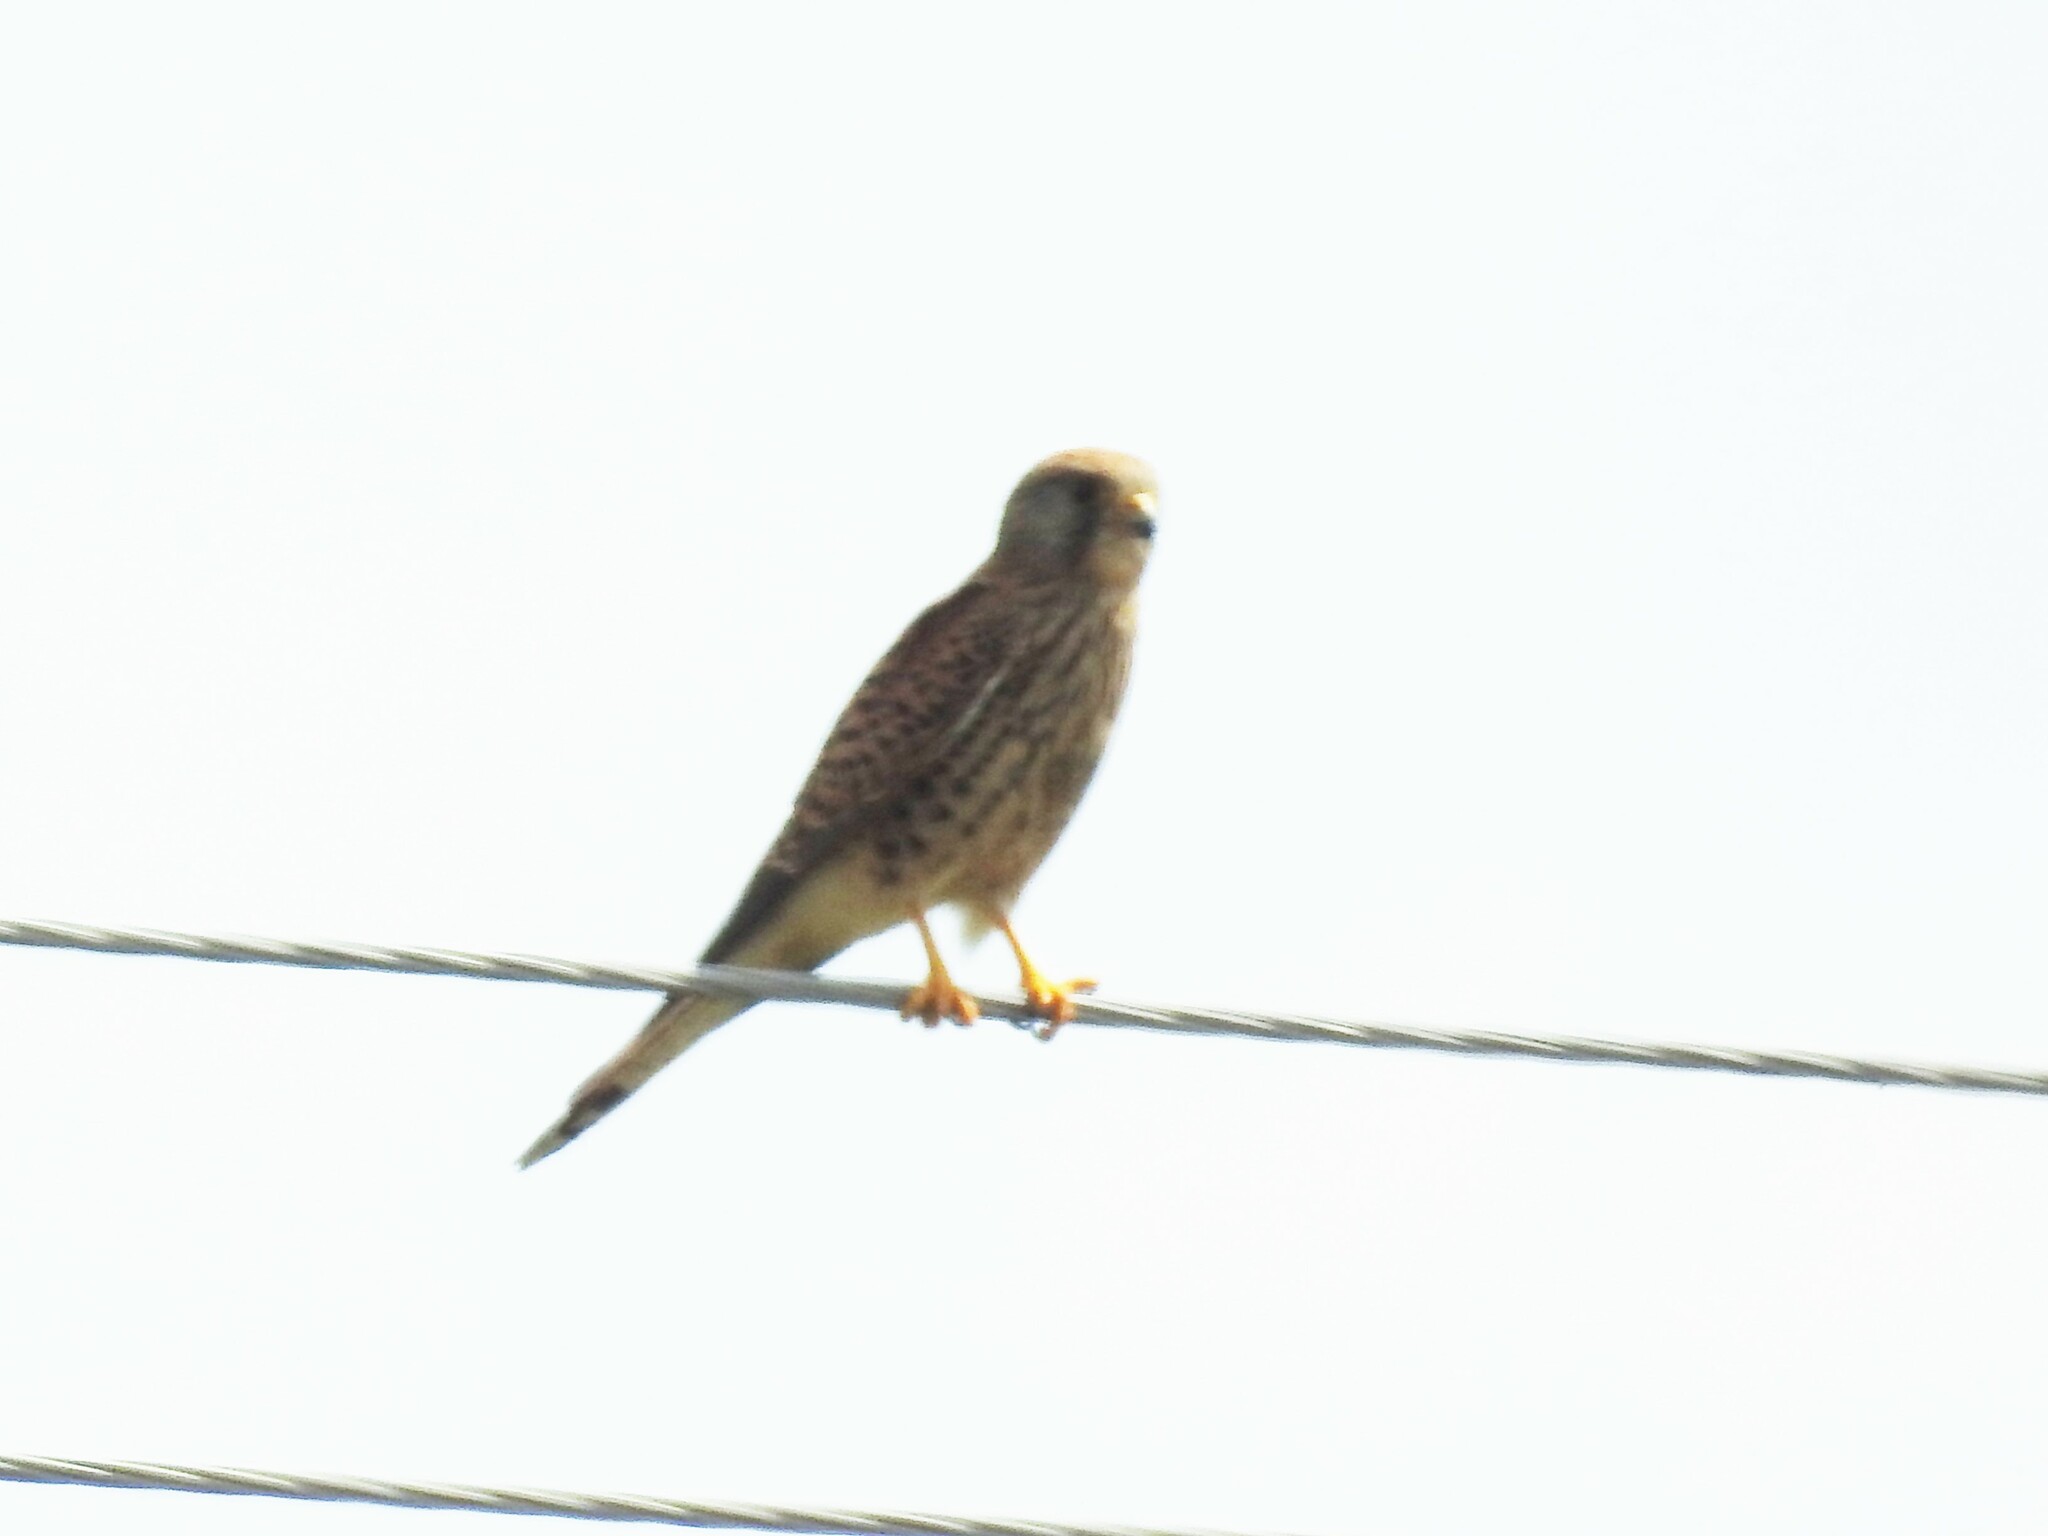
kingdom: Animalia
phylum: Chordata
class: Aves
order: Falconiformes
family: Falconidae
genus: Falco
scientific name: Falco tinnunculus
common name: Common kestrel
